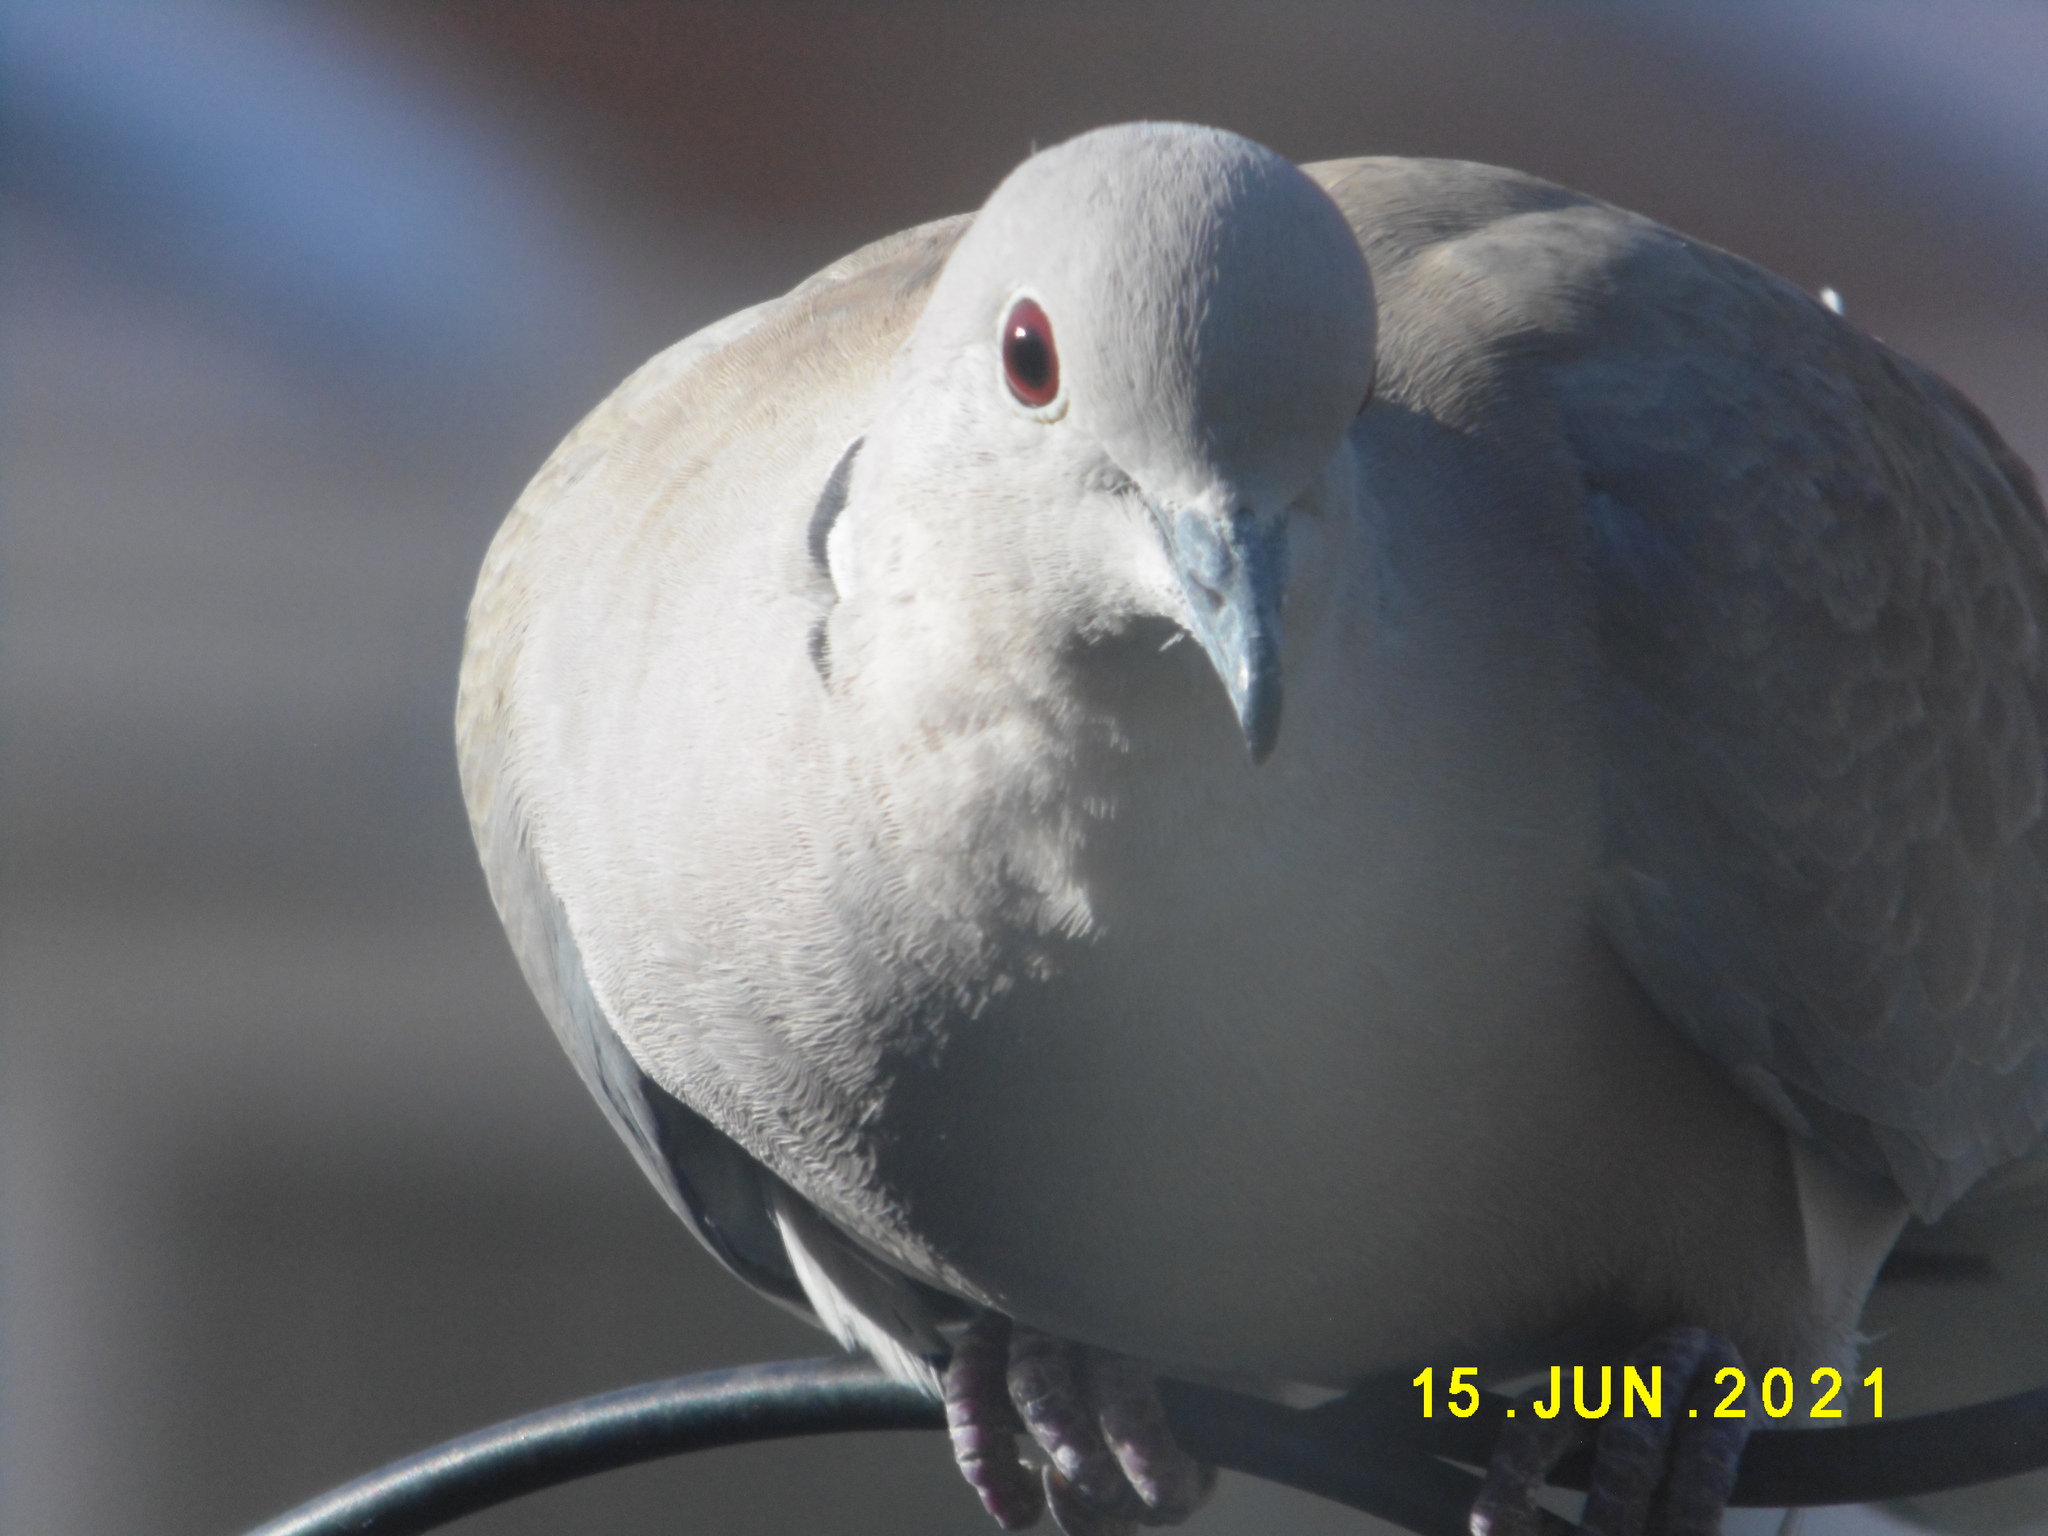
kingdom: Animalia
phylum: Chordata
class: Aves
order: Columbiformes
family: Columbidae
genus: Streptopelia
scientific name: Streptopelia decaocto
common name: Eurasian collared dove
